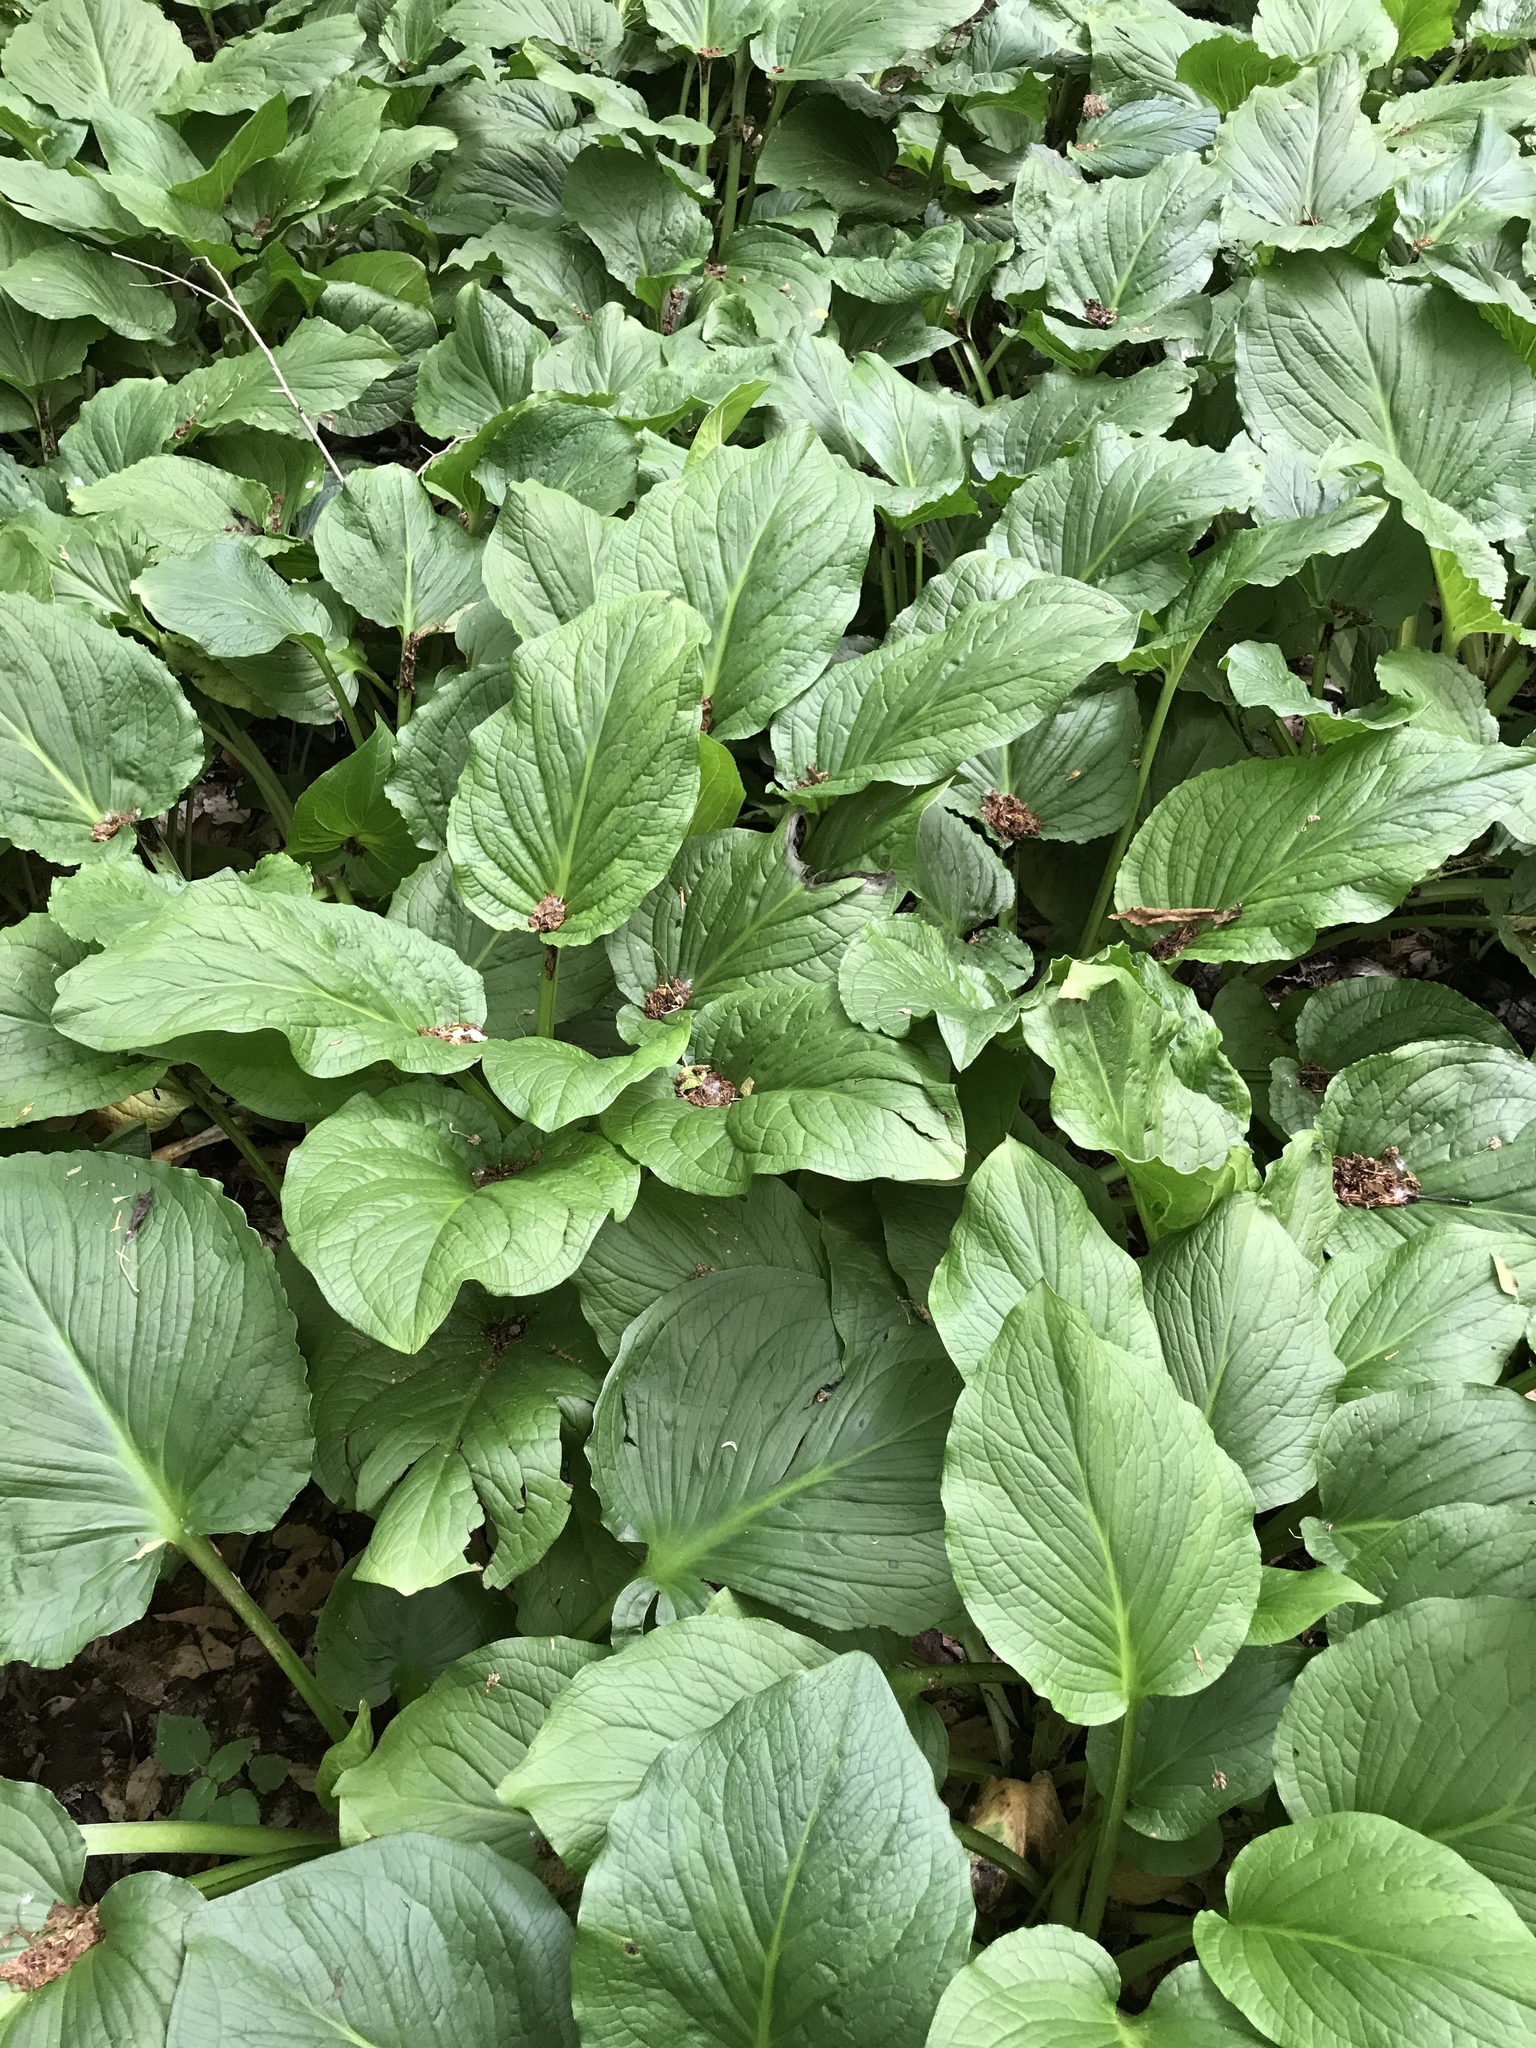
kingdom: Plantae
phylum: Tracheophyta
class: Liliopsida
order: Alismatales
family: Araceae
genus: Symplocarpus
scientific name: Symplocarpus foetidus
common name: Eastern skunk cabbage
